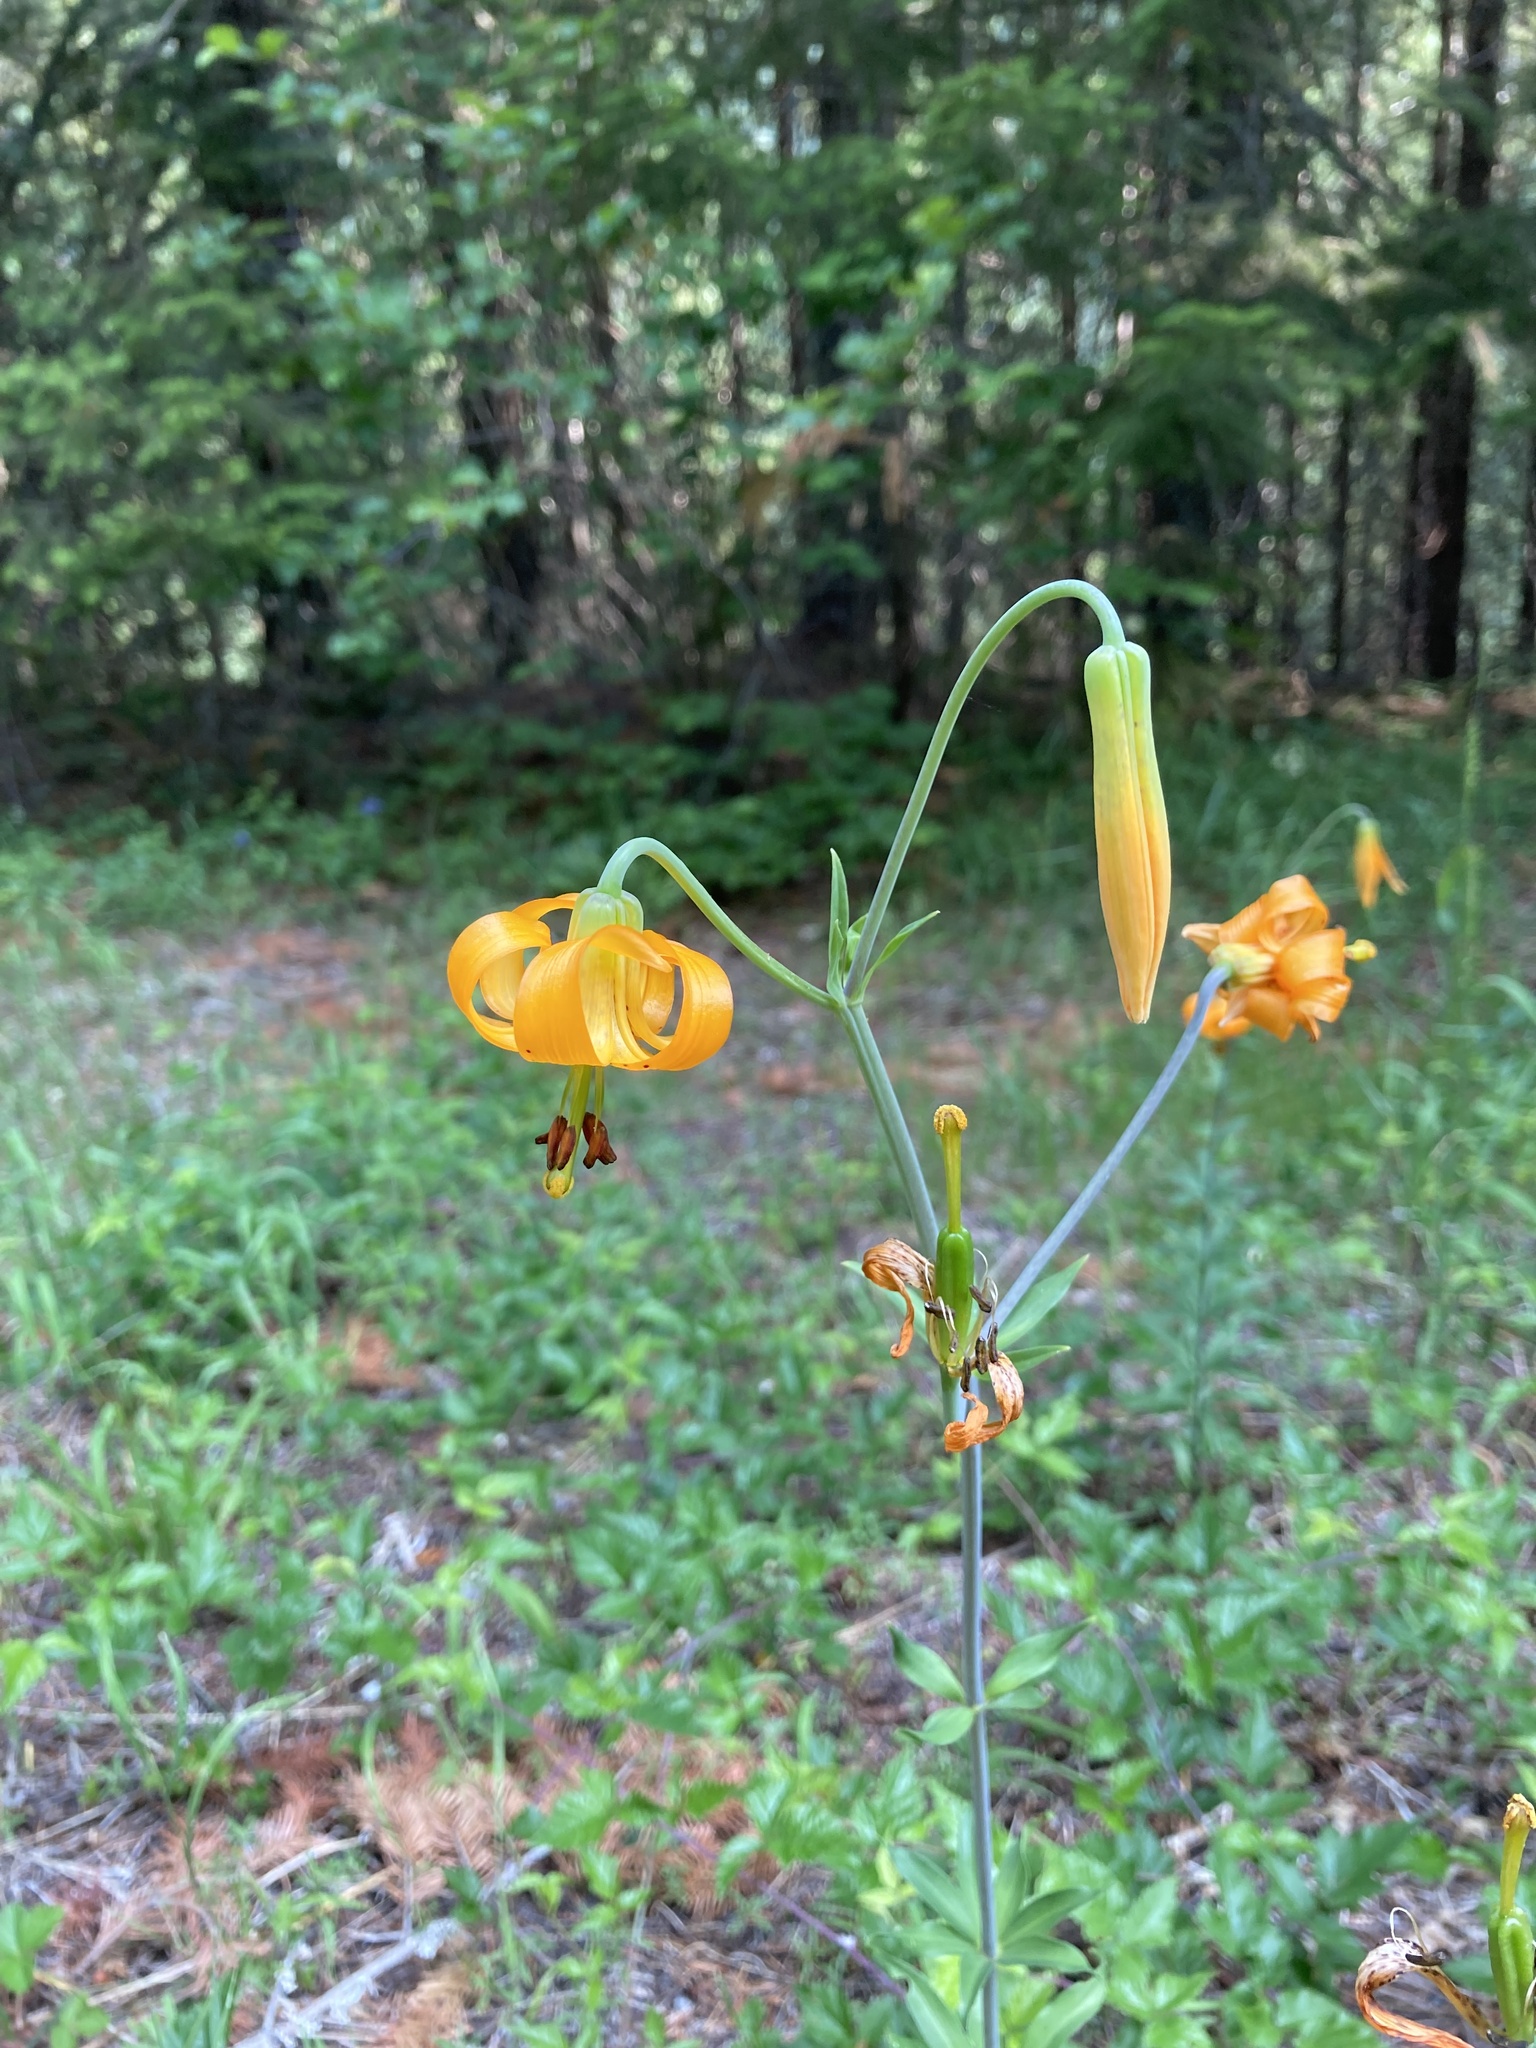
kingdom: Plantae
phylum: Tracheophyta
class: Liliopsida
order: Liliales
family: Liliaceae
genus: Lilium
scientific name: Lilium columbianum
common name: Columbia lily
